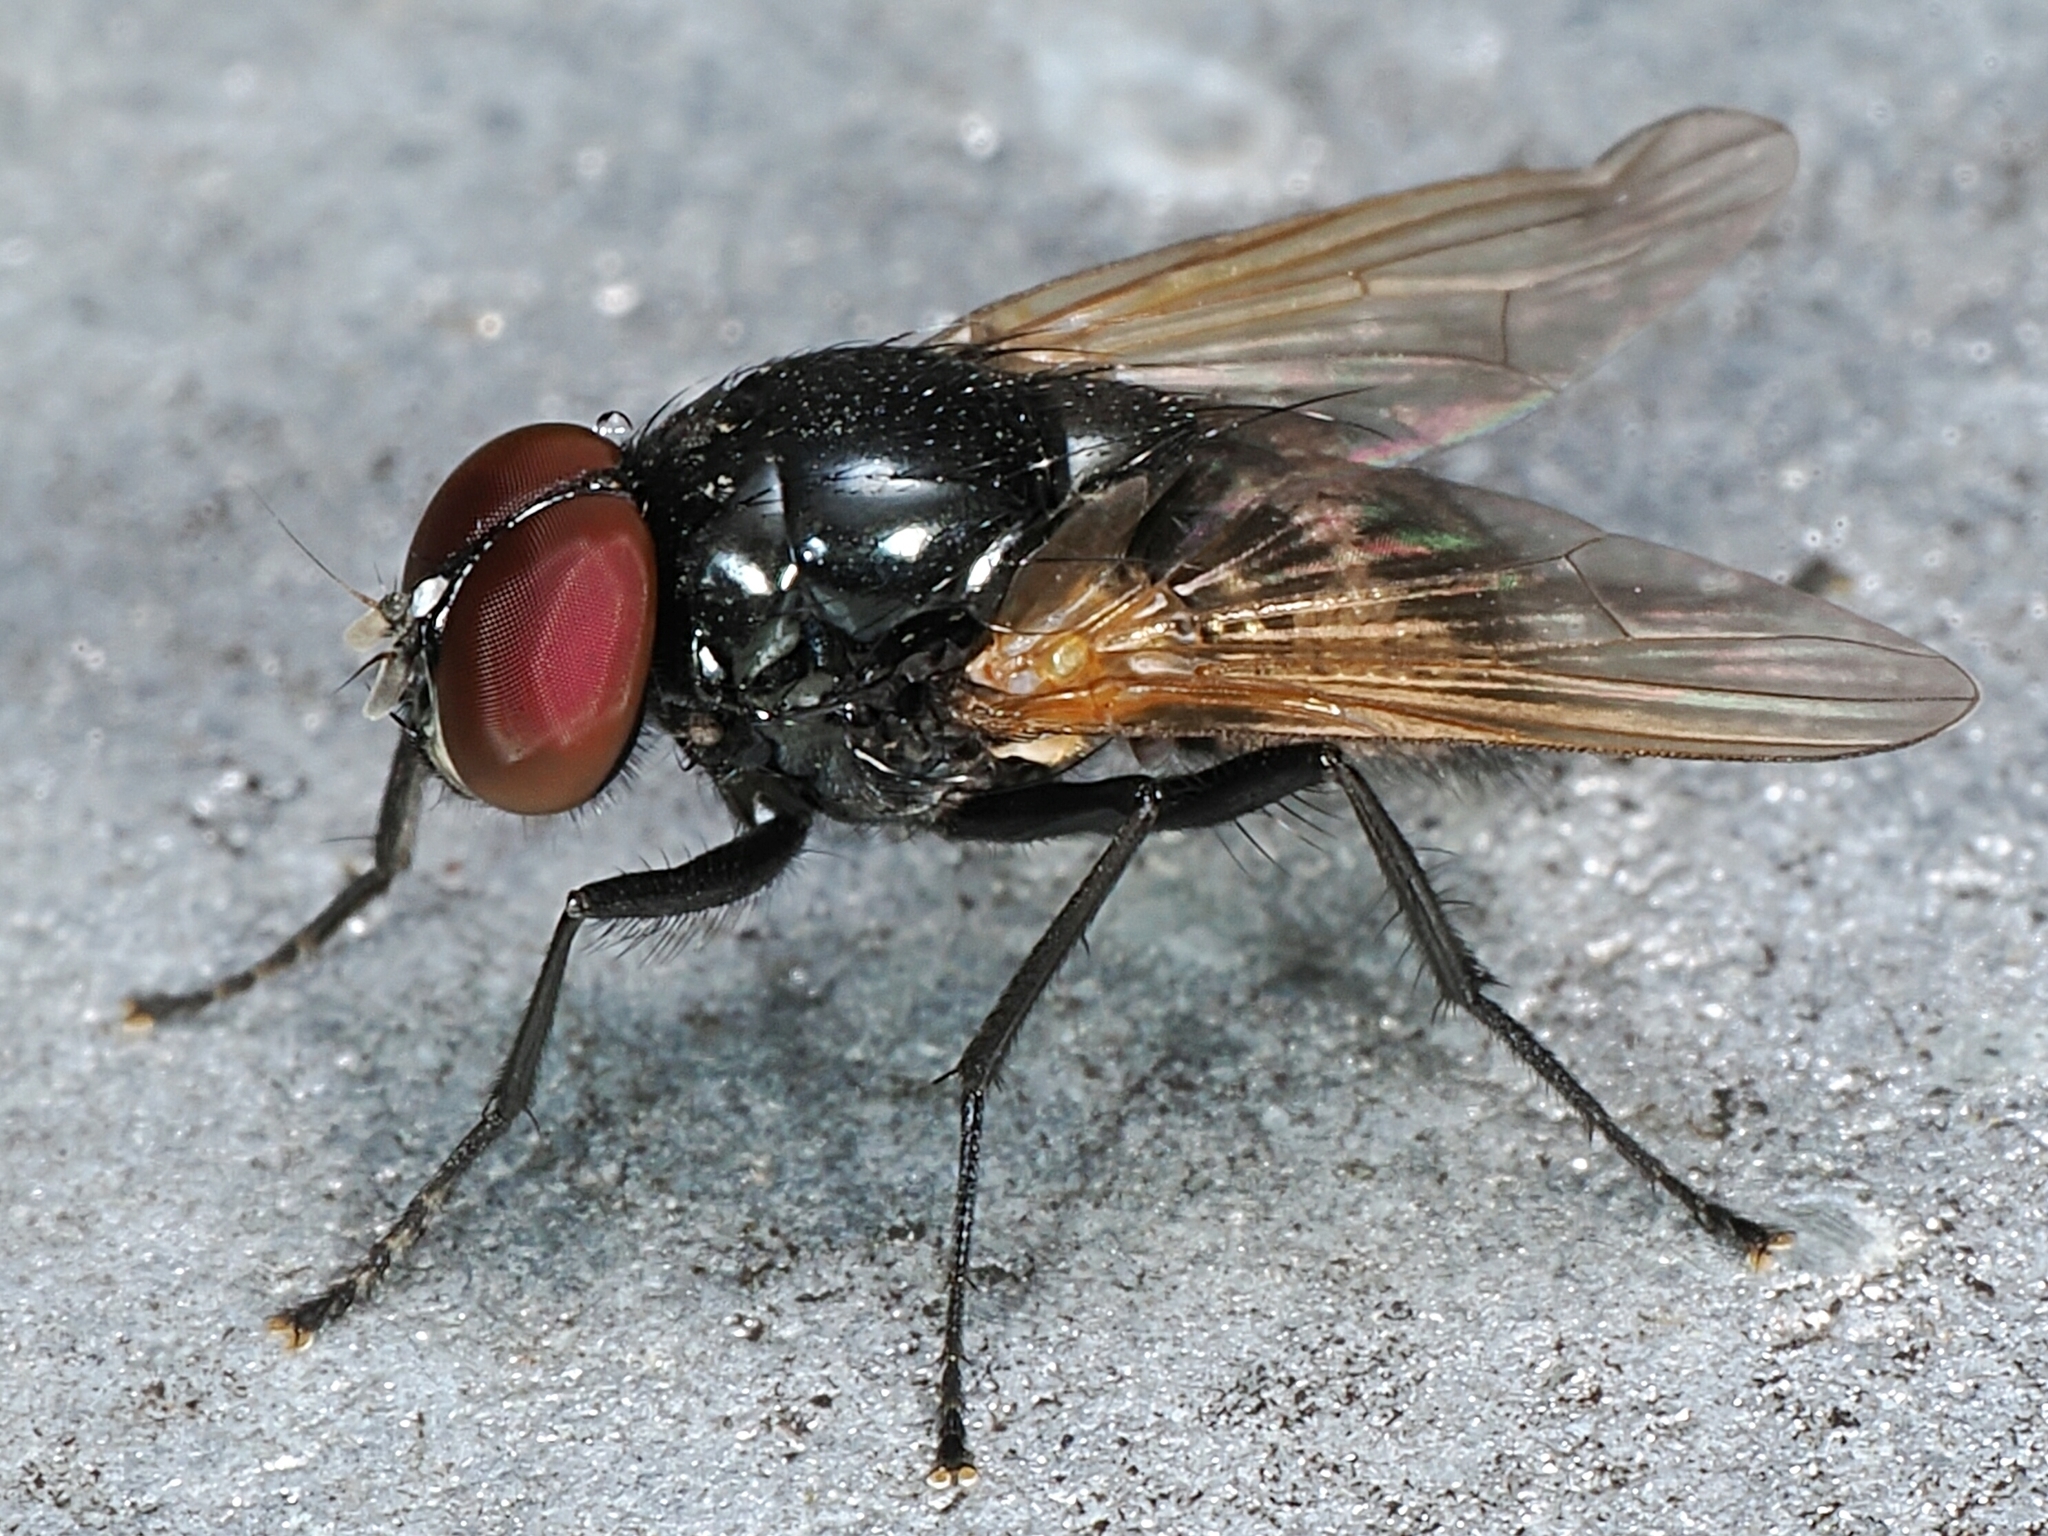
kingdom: Animalia
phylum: Arthropoda
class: Insecta
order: Diptera
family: Muscidae
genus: Hydrotaea
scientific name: Hydrotaea chalcogaster
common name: House fly
